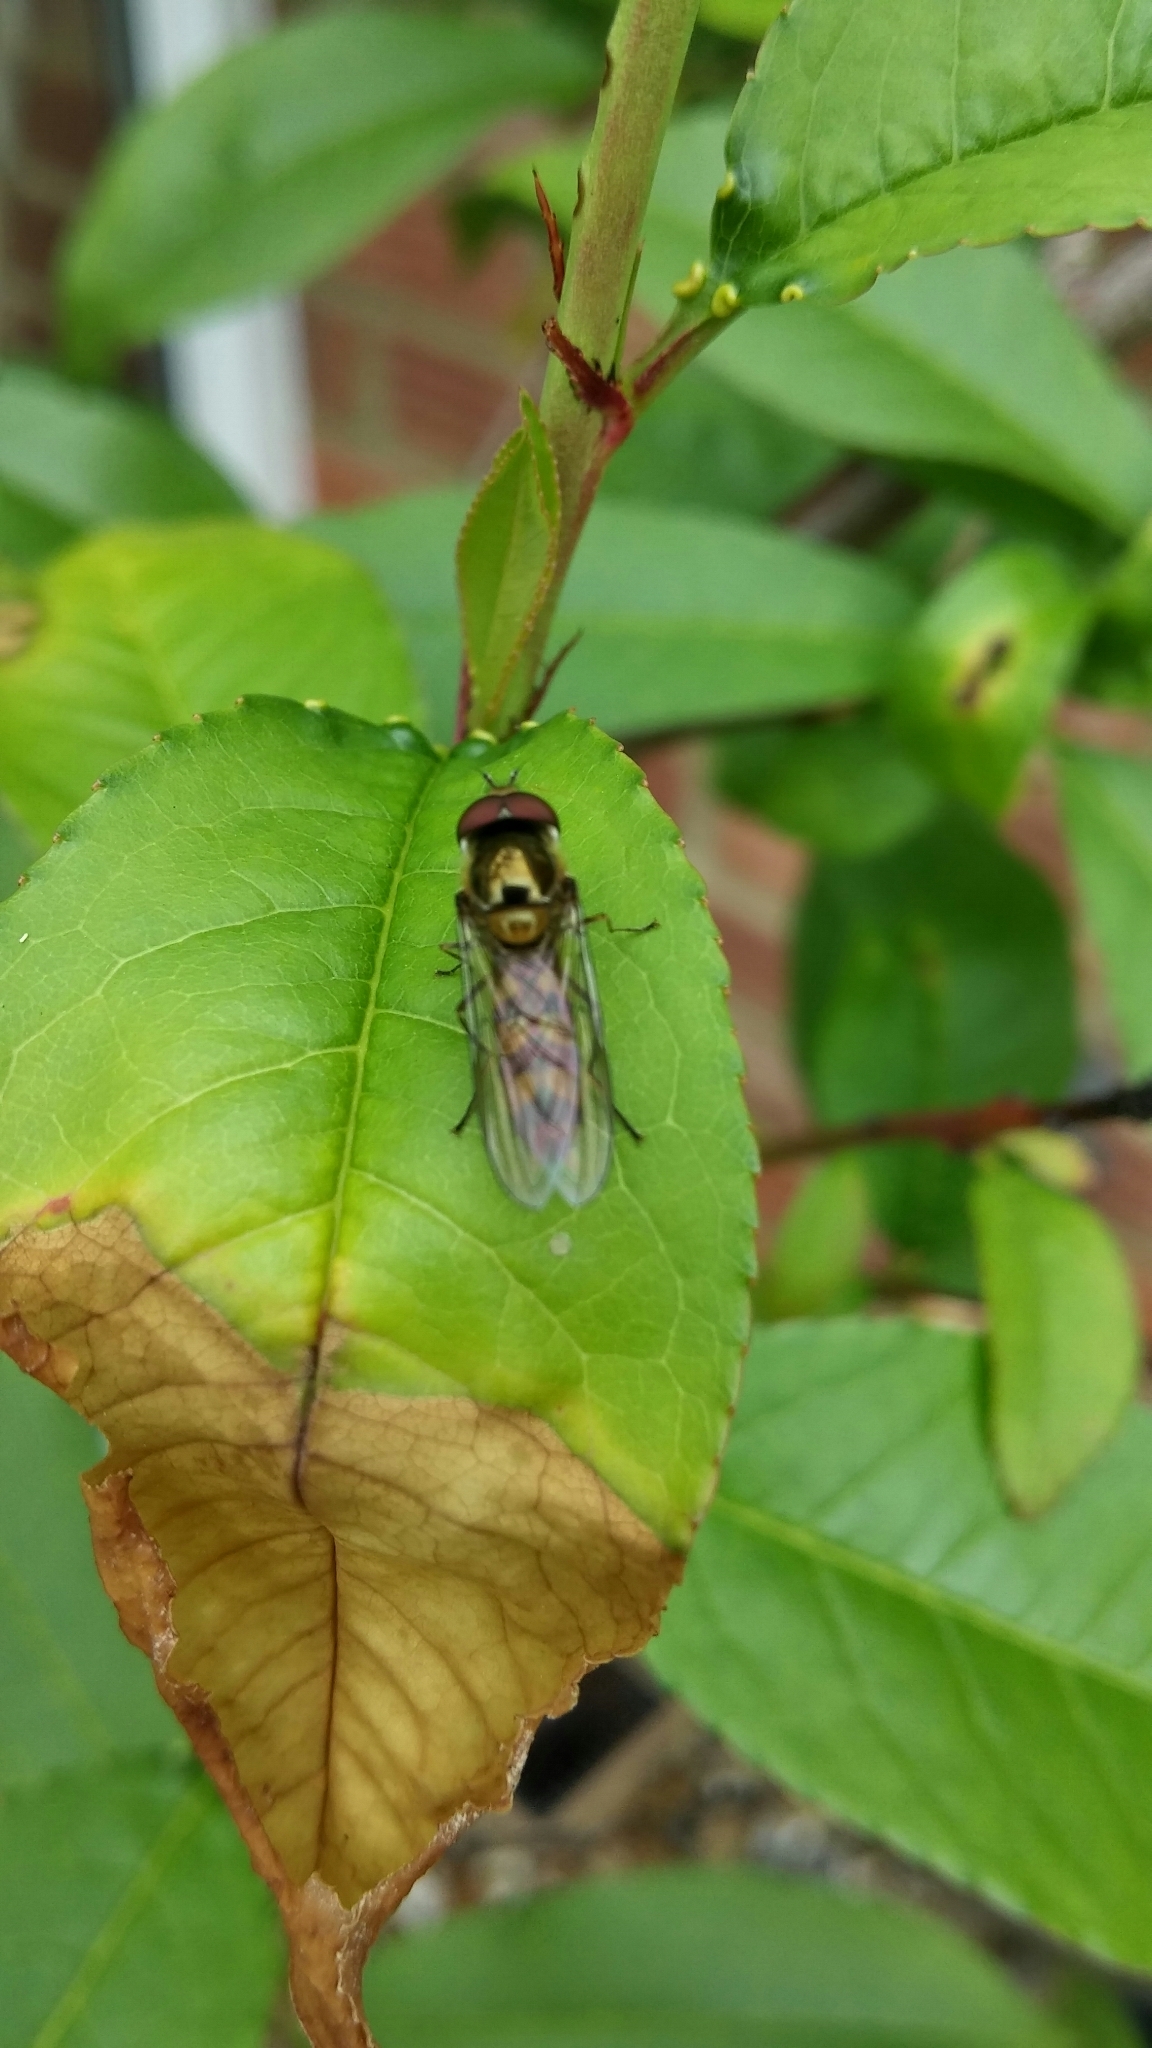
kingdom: Animalia
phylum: Arthropoda
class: Insecta
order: Diptera
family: Syrphidae
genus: Meliscaeva
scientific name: Meliscaeva auricollis
